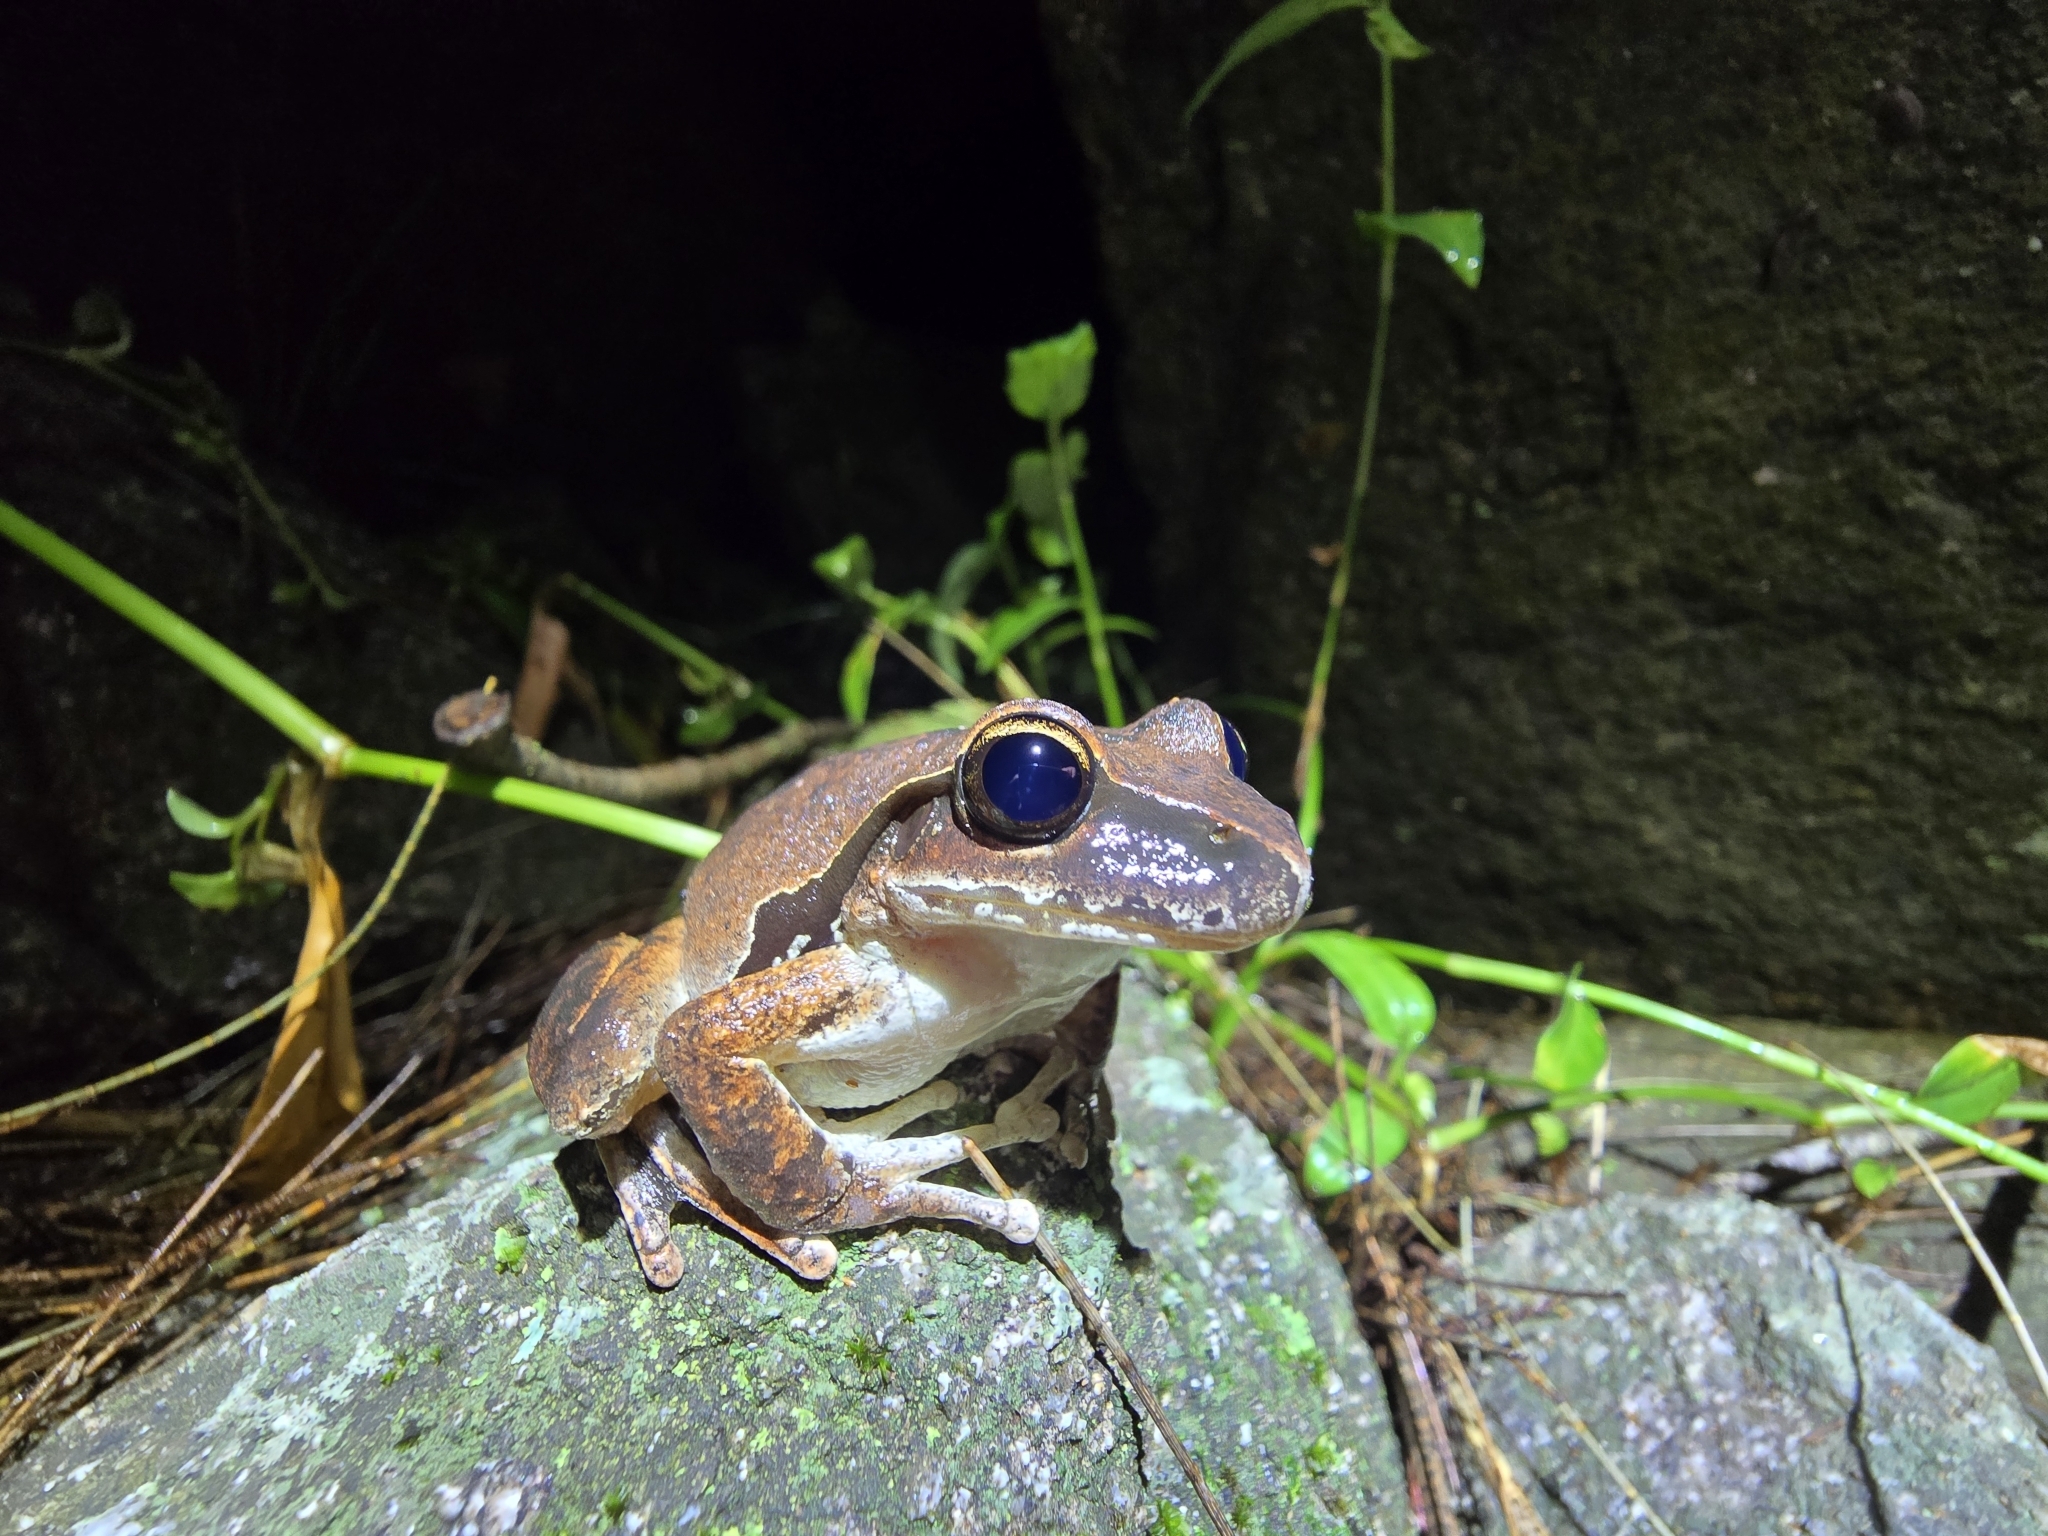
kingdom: Animalia
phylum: Chordata
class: Amphibia
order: Anura
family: Pelodryadidae
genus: Ranoidea
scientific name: Ranoidea wilcoxii
